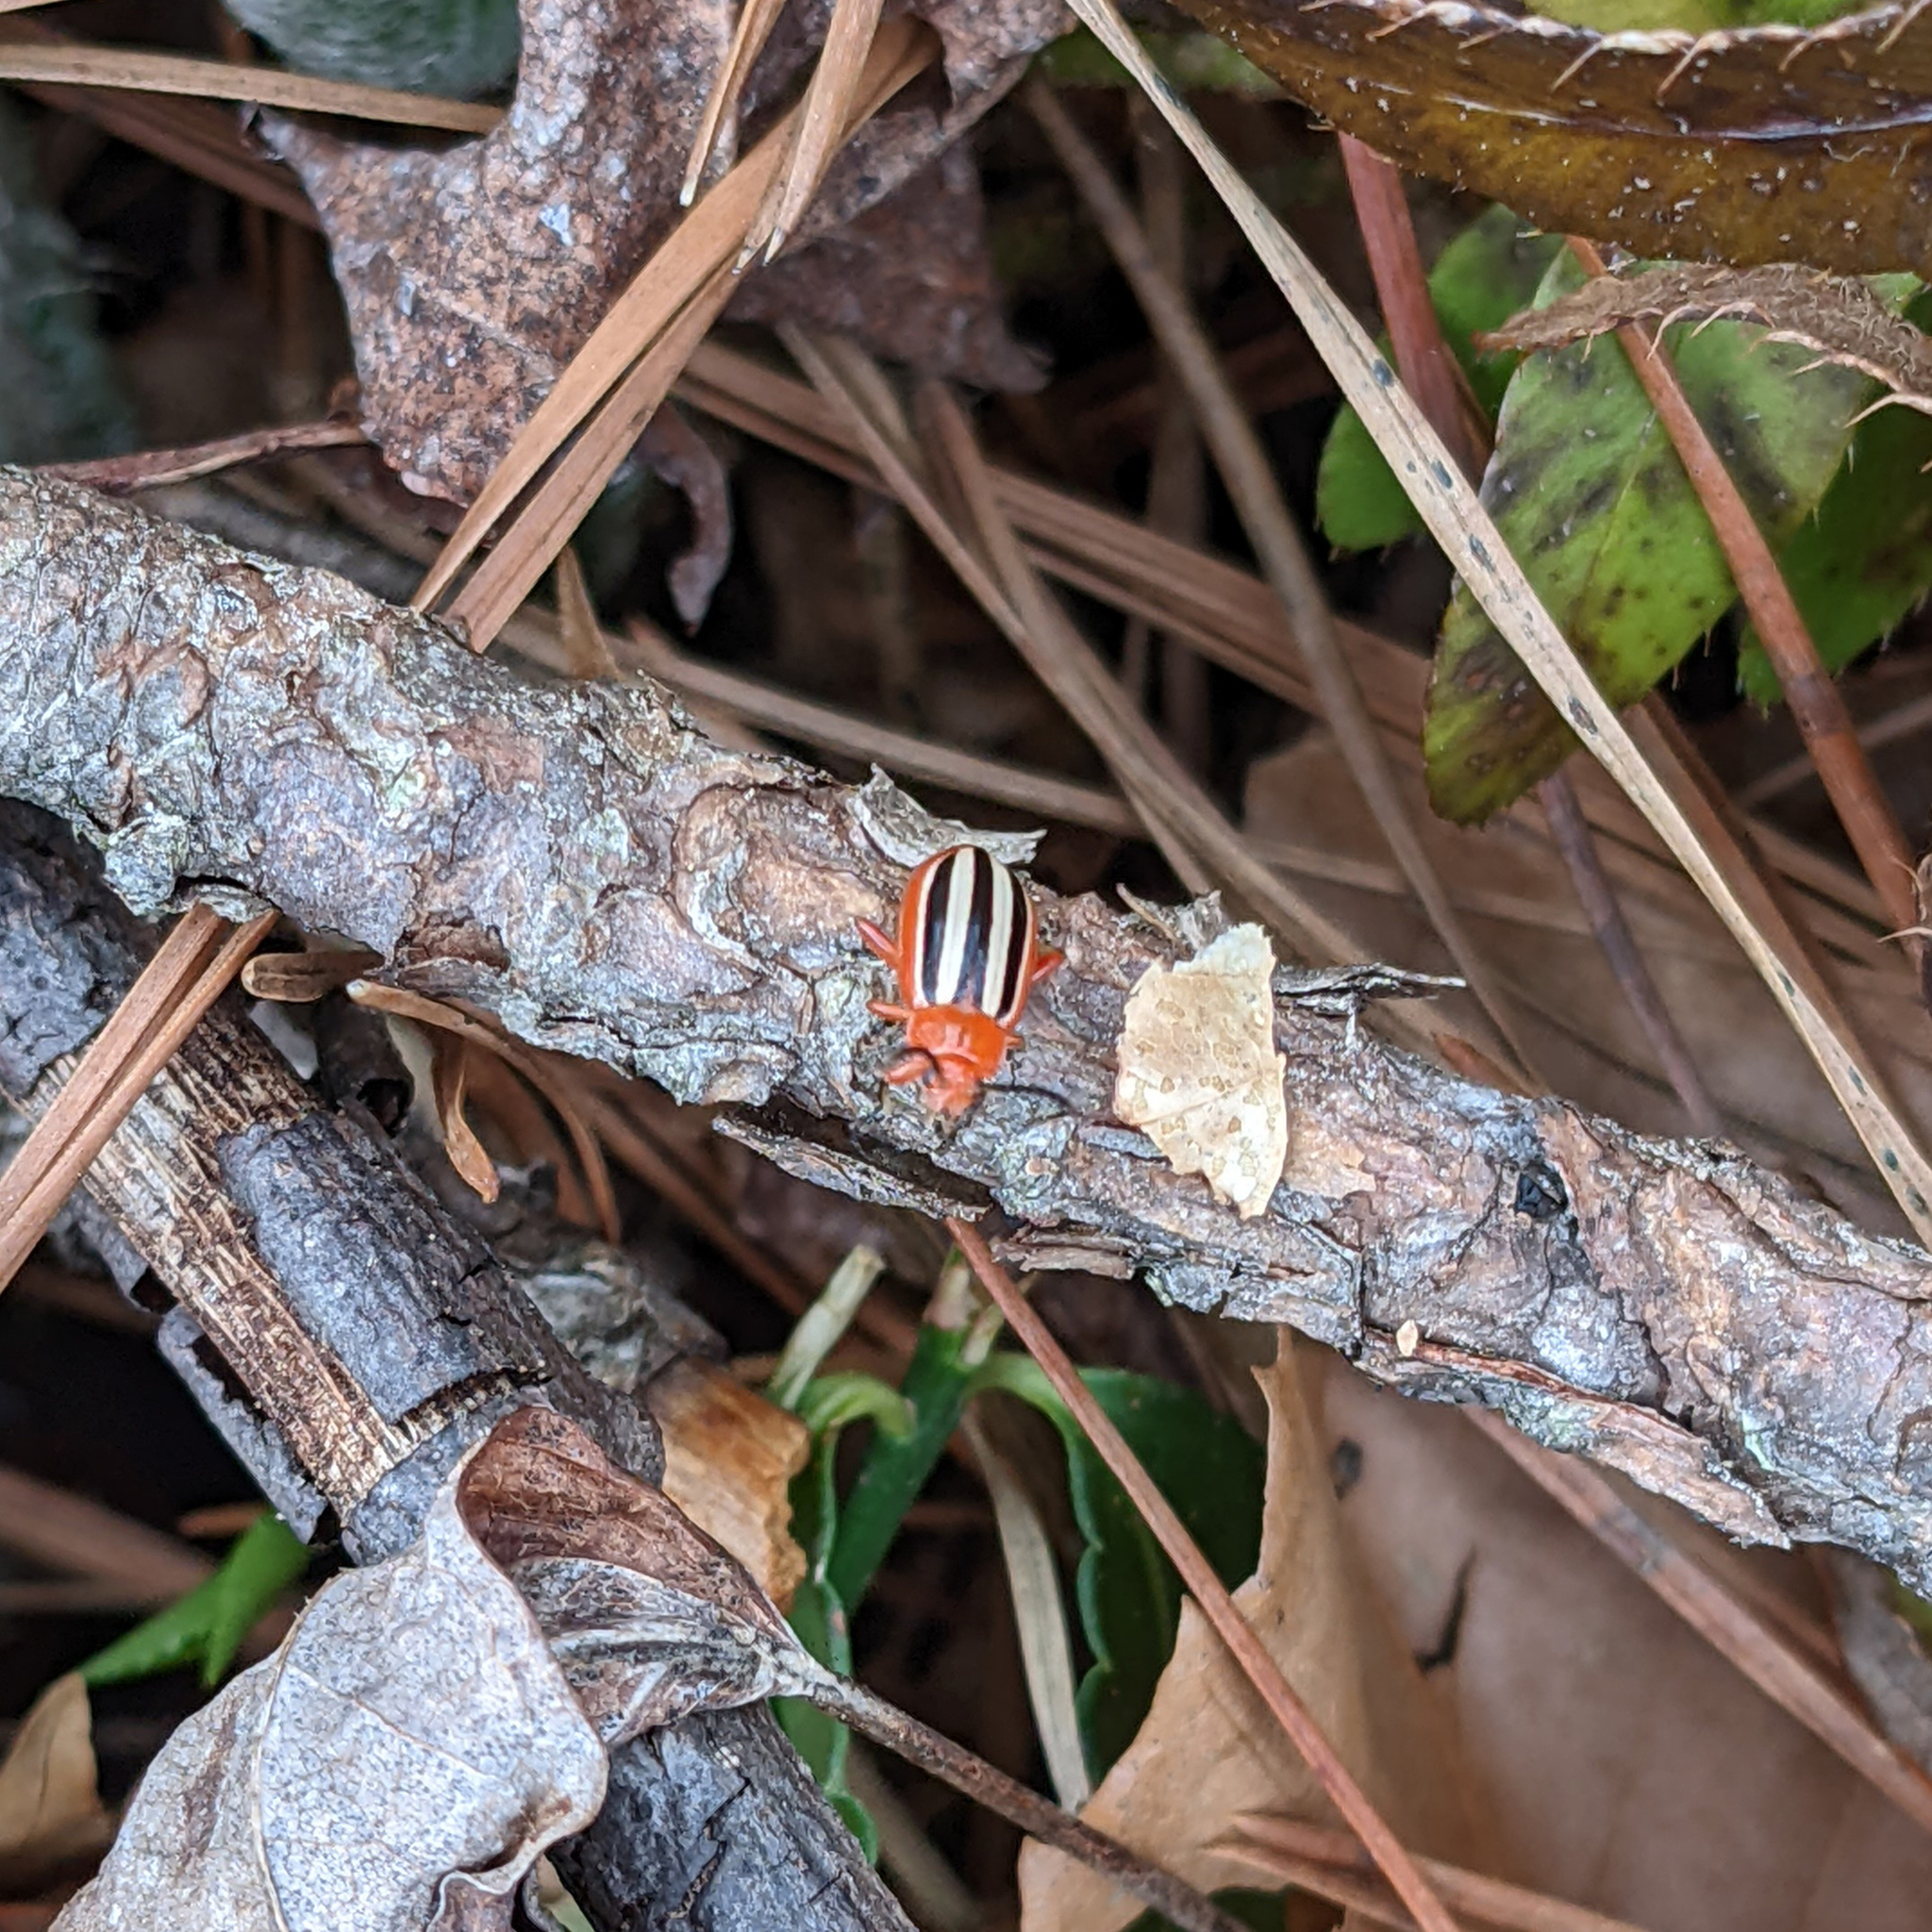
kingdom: Animalia
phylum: Arthropoda
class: Insecta
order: Coleoptera
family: Chrysomelidae
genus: Disonycha
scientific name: Disonycha discoidea
